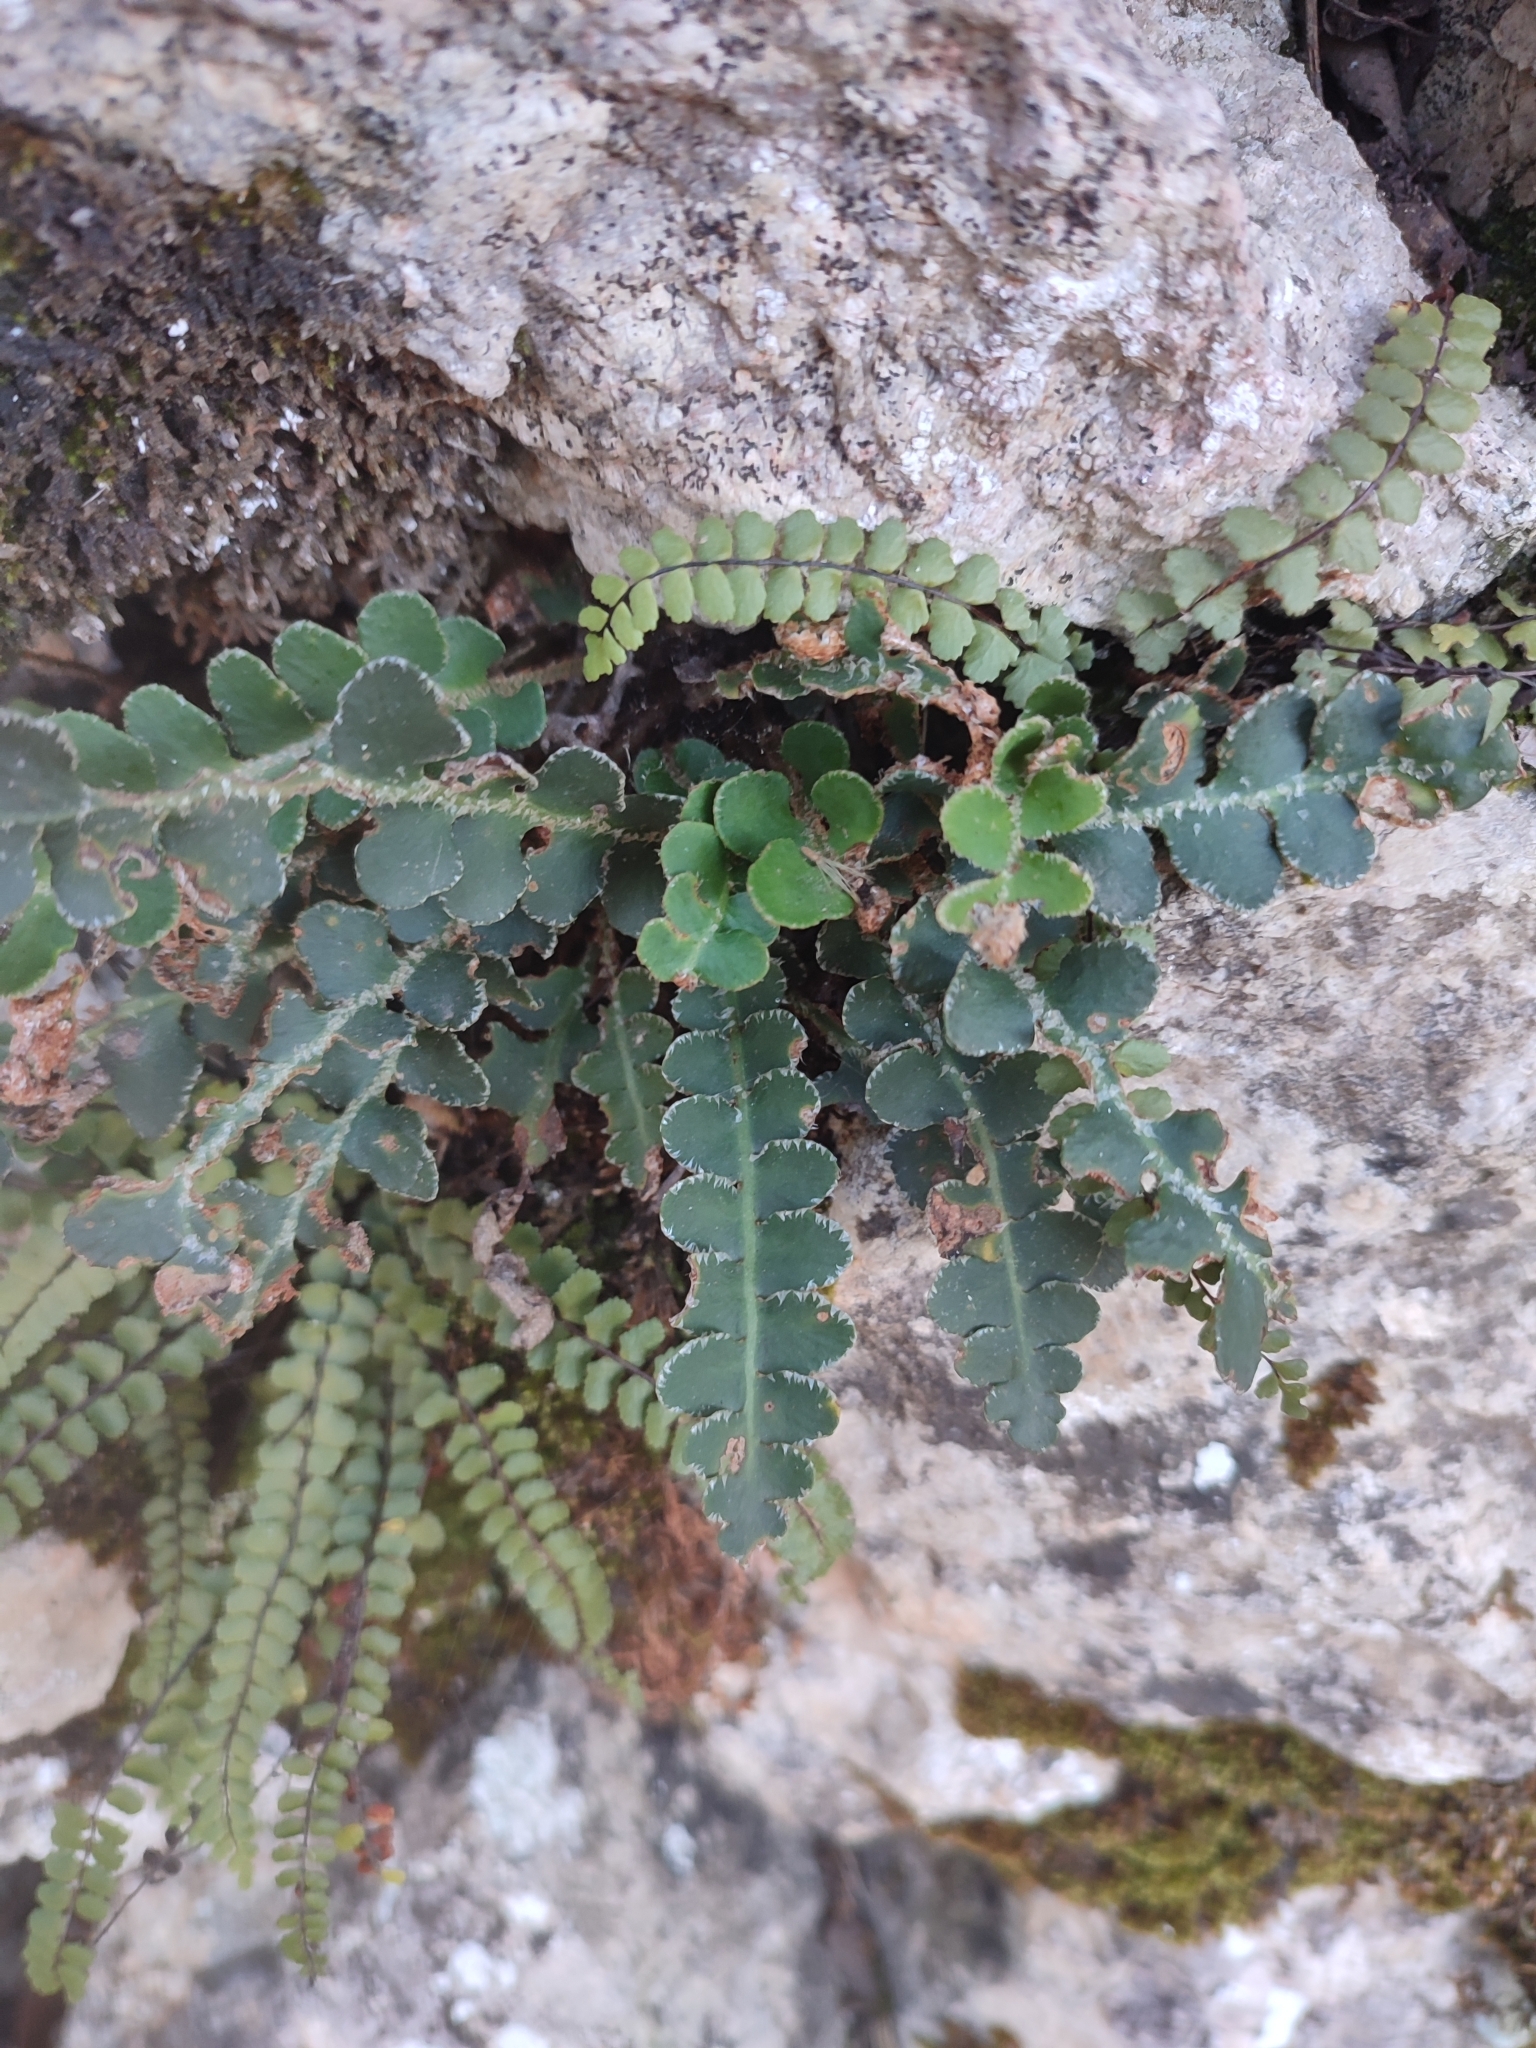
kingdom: Plantae
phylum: Tracheophyta
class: Polypodiopsida
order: Polypodiales
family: Aspleniaceae
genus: Asplenium
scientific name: Asplenium ceterach
